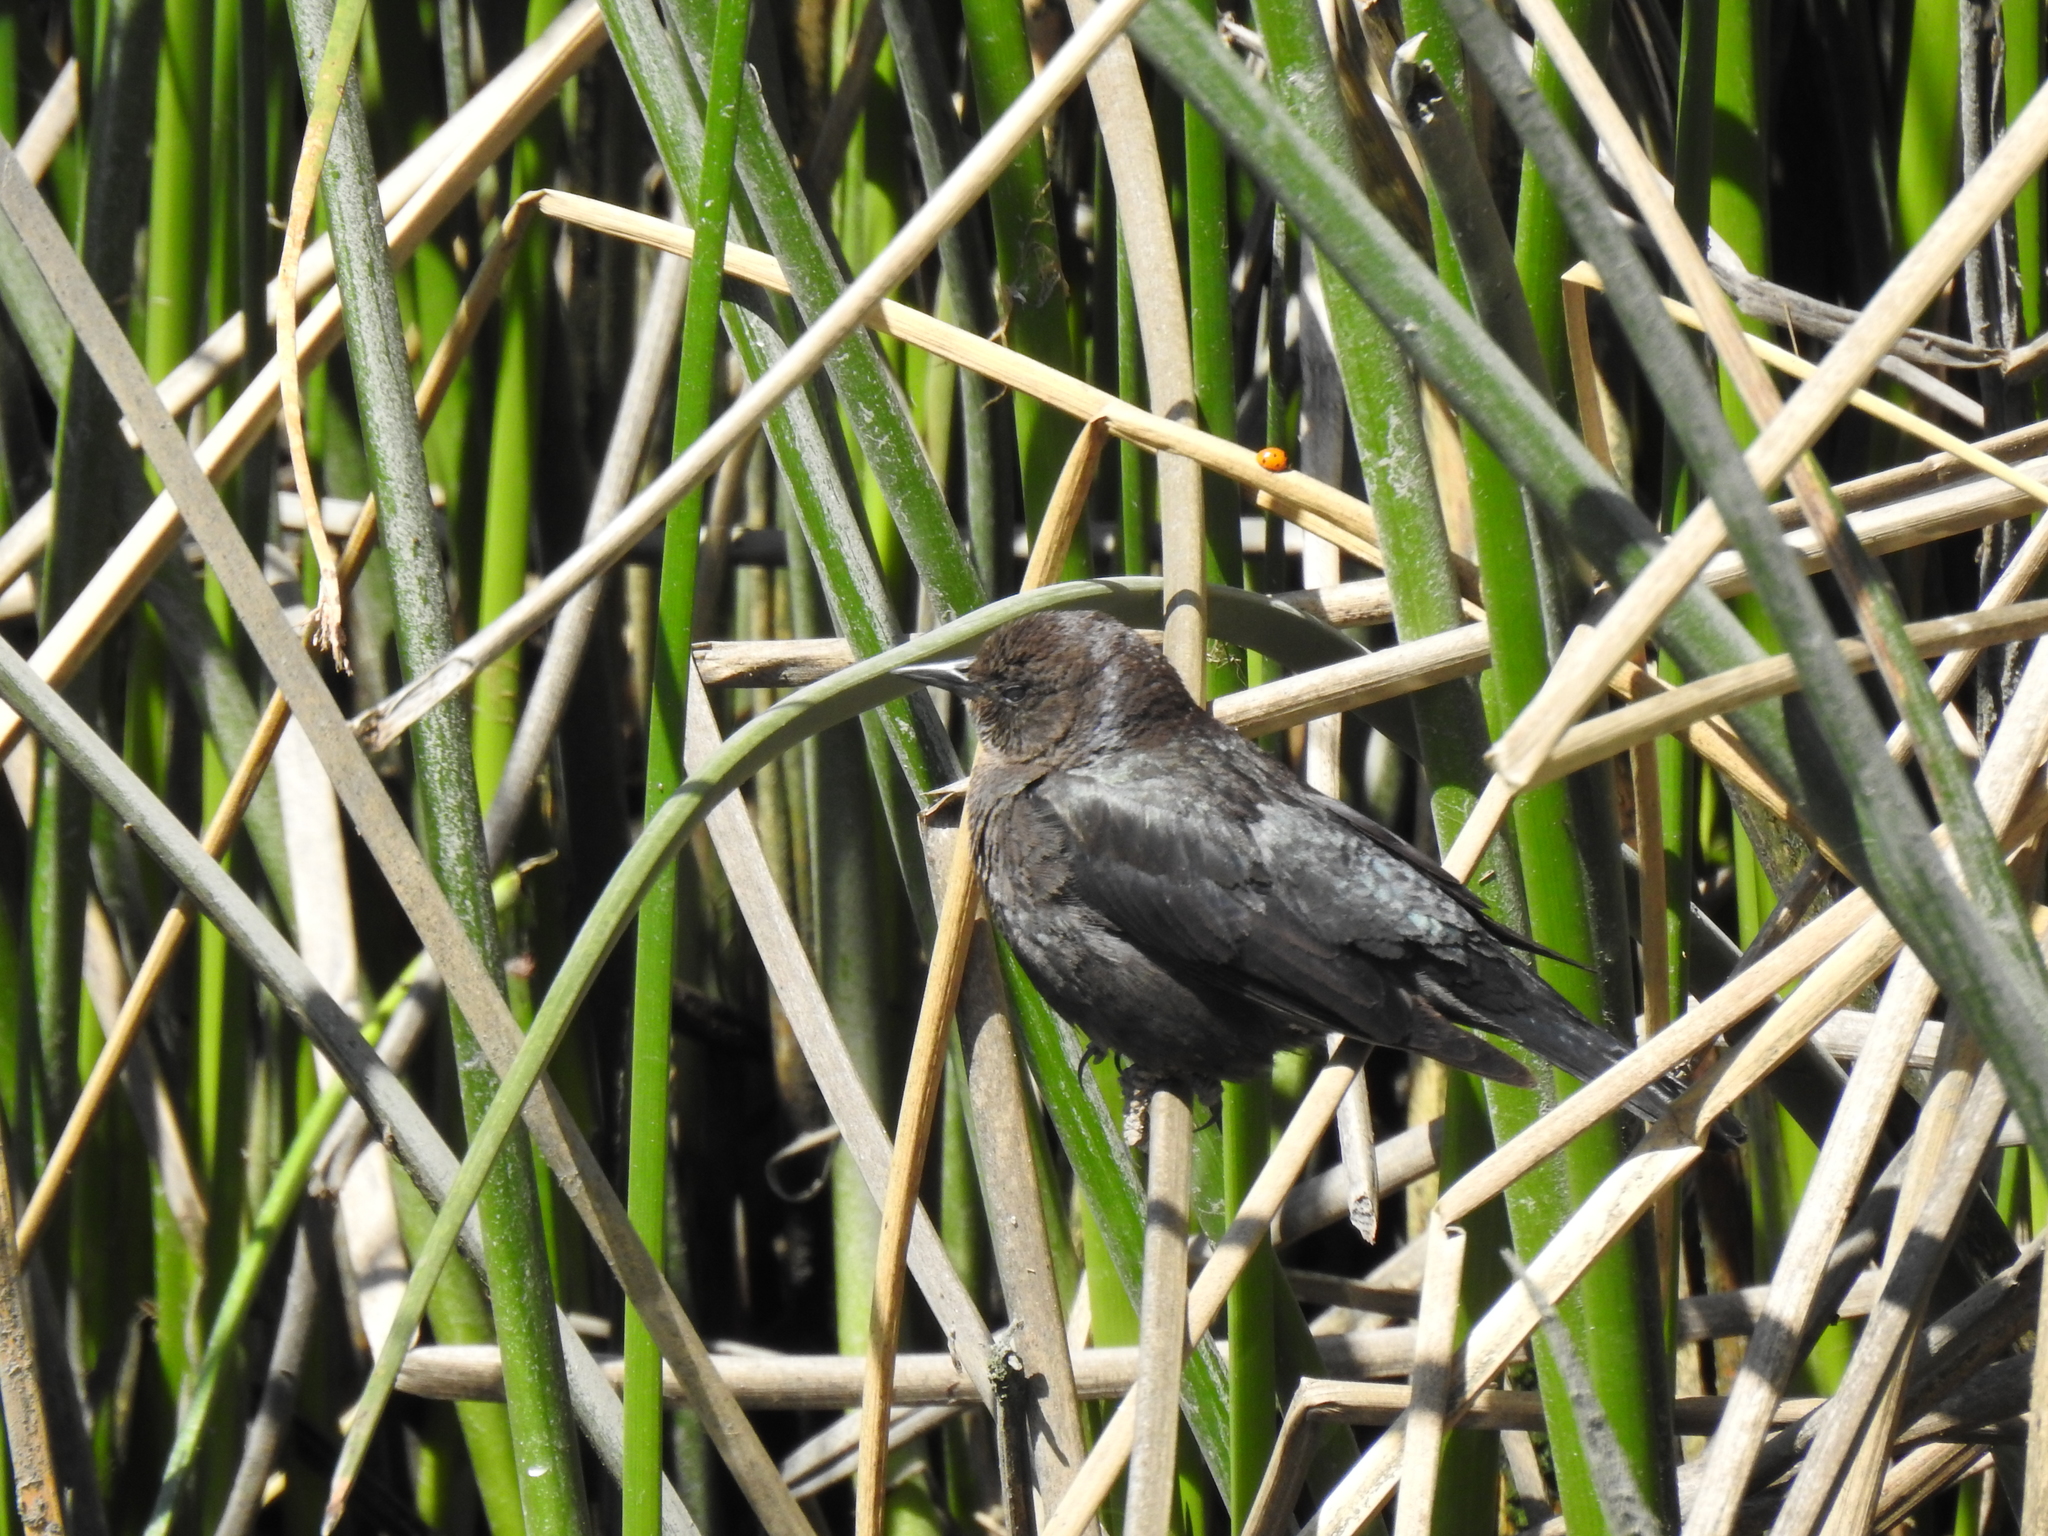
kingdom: Animalia
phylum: Chordata
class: Aves
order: Passeriformes
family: Icteridae
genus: Euphagus
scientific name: Euphagus cyanocephalus
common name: Brewer's blackbird
